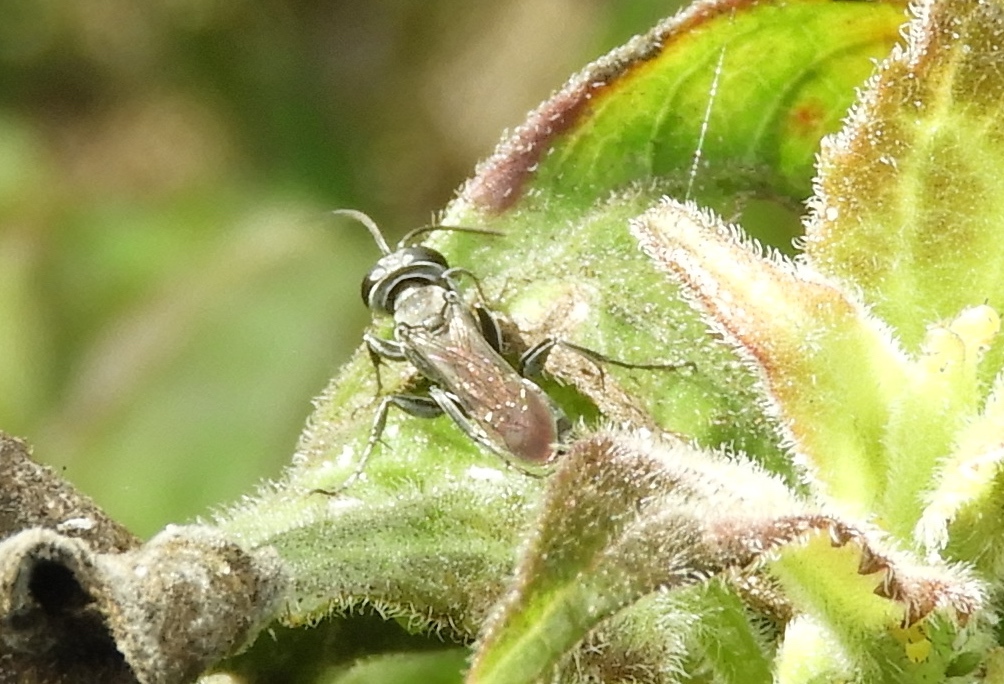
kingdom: Animalia
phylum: Arthropoda
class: Insecta
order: Hymenoptera
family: Crabronidae
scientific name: Crabronidae
